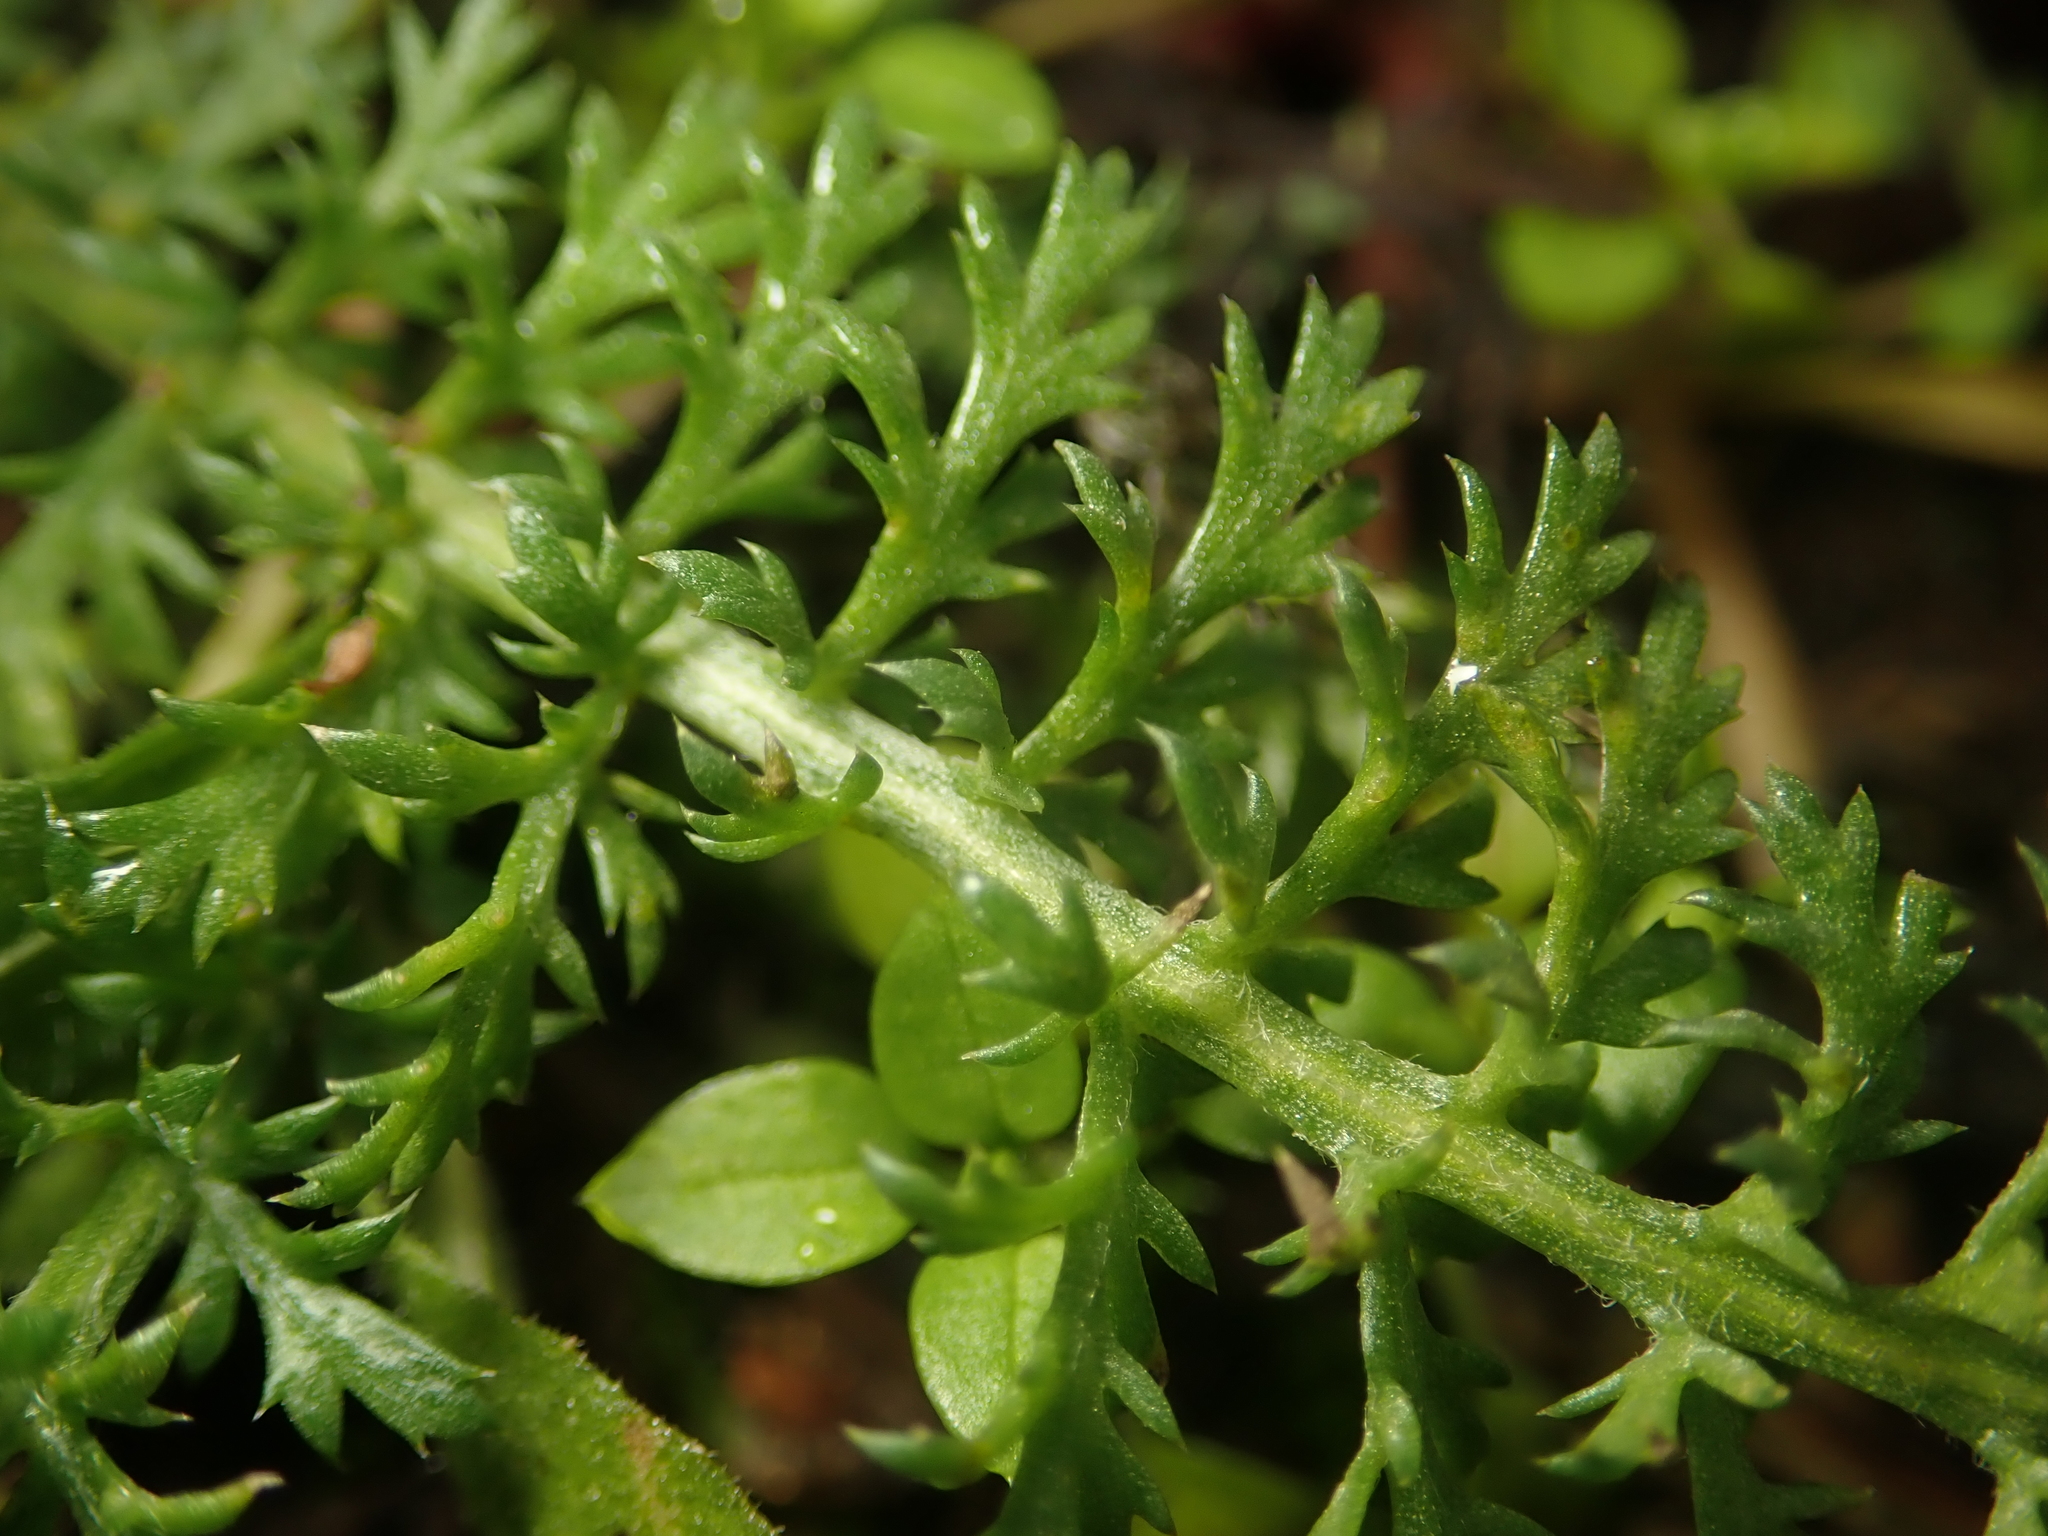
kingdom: Plantae
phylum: Tracheophyta
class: Magnoliopsida
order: Asterales
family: Asteraceae
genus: Achillea
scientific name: Achillea millefolium
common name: Yarrow
